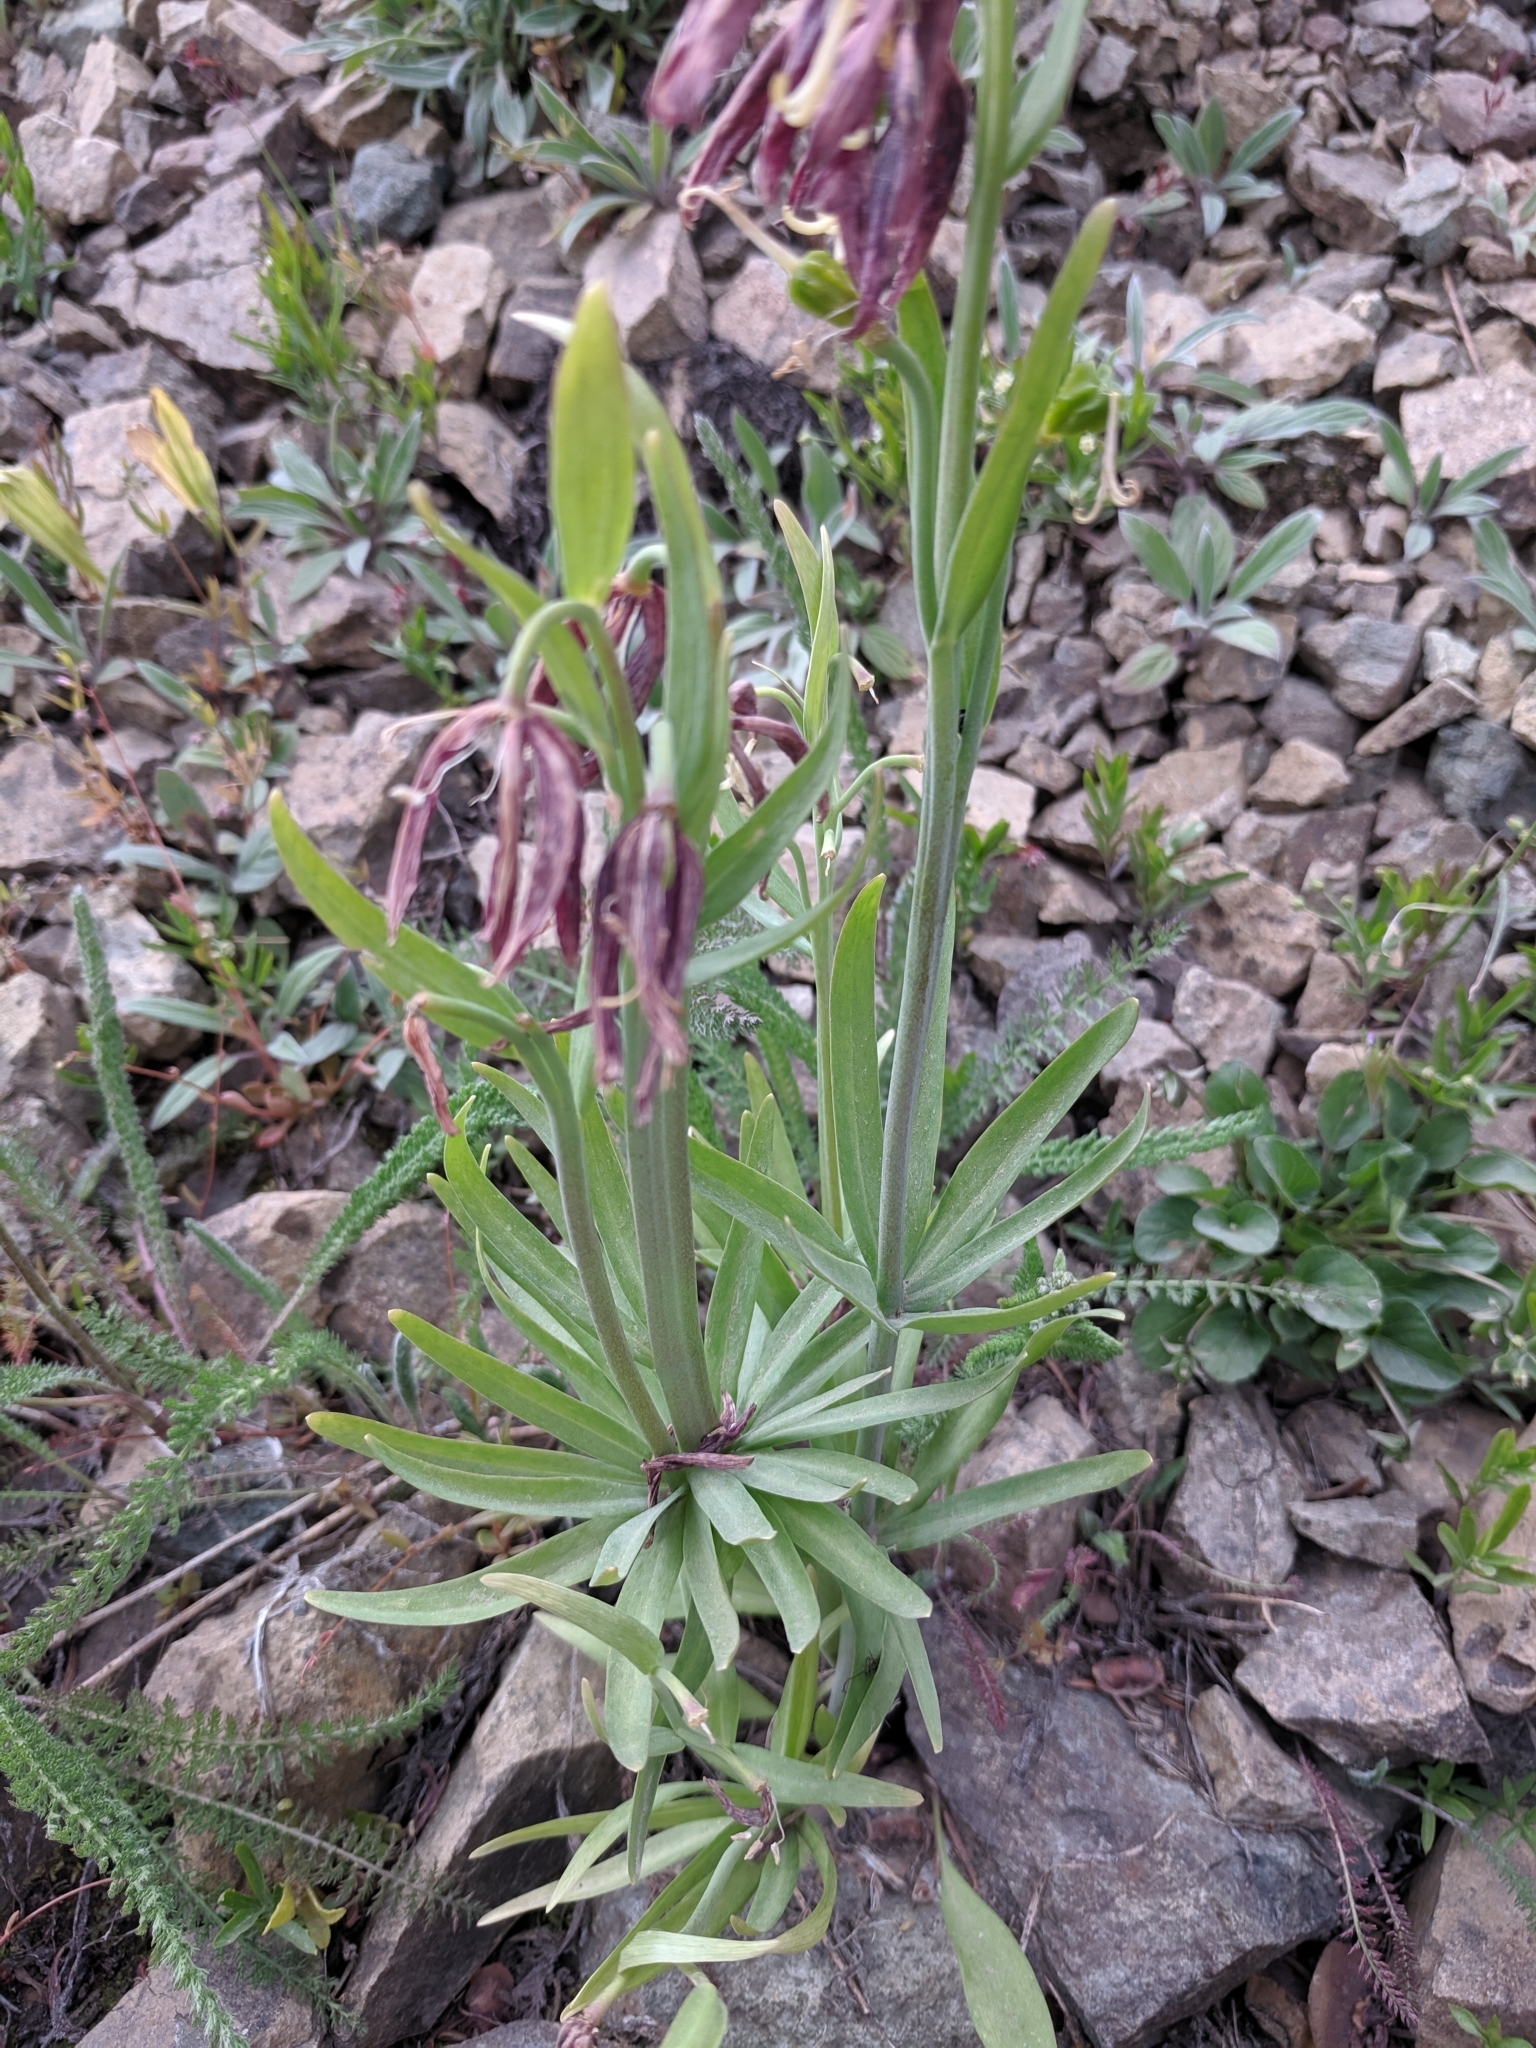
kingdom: Plantae
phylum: Tracheophyta
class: Liliopsida
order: Liliales
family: Liliaceae
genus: Fritillaria
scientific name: Fritillaria affinis
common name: Ojai fritillary
